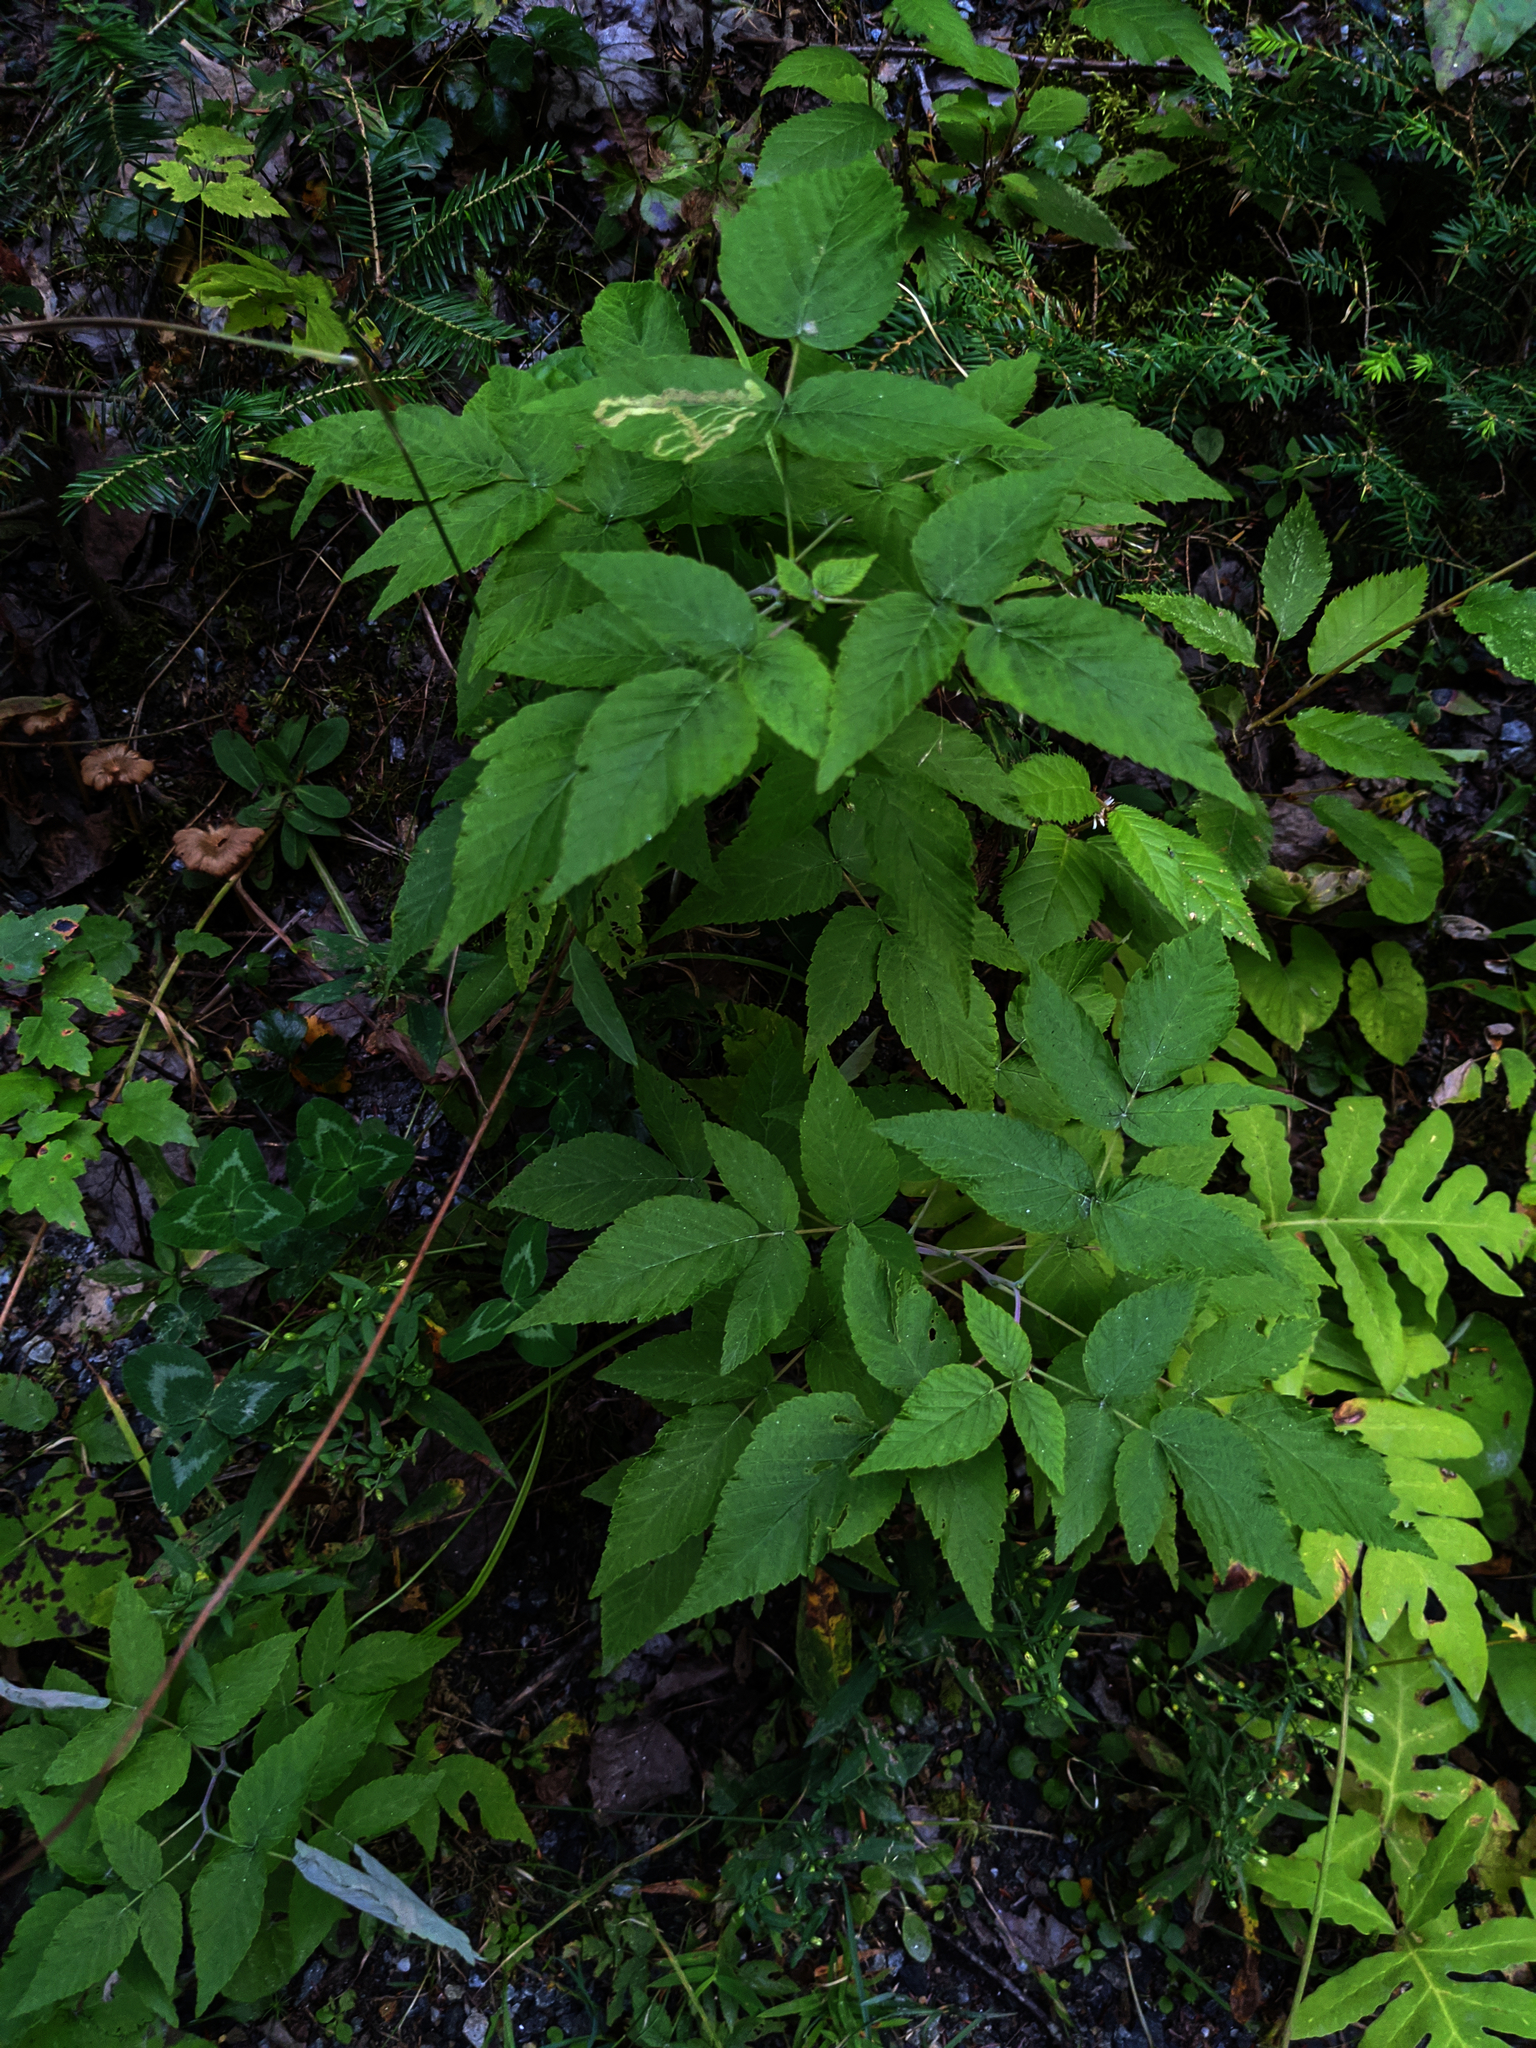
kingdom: Plantae
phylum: Tracheophyta
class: Magnoliopsida
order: Rosales
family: Rosaceae
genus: Rubus
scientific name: Rubus idaeus
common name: Raspberry
